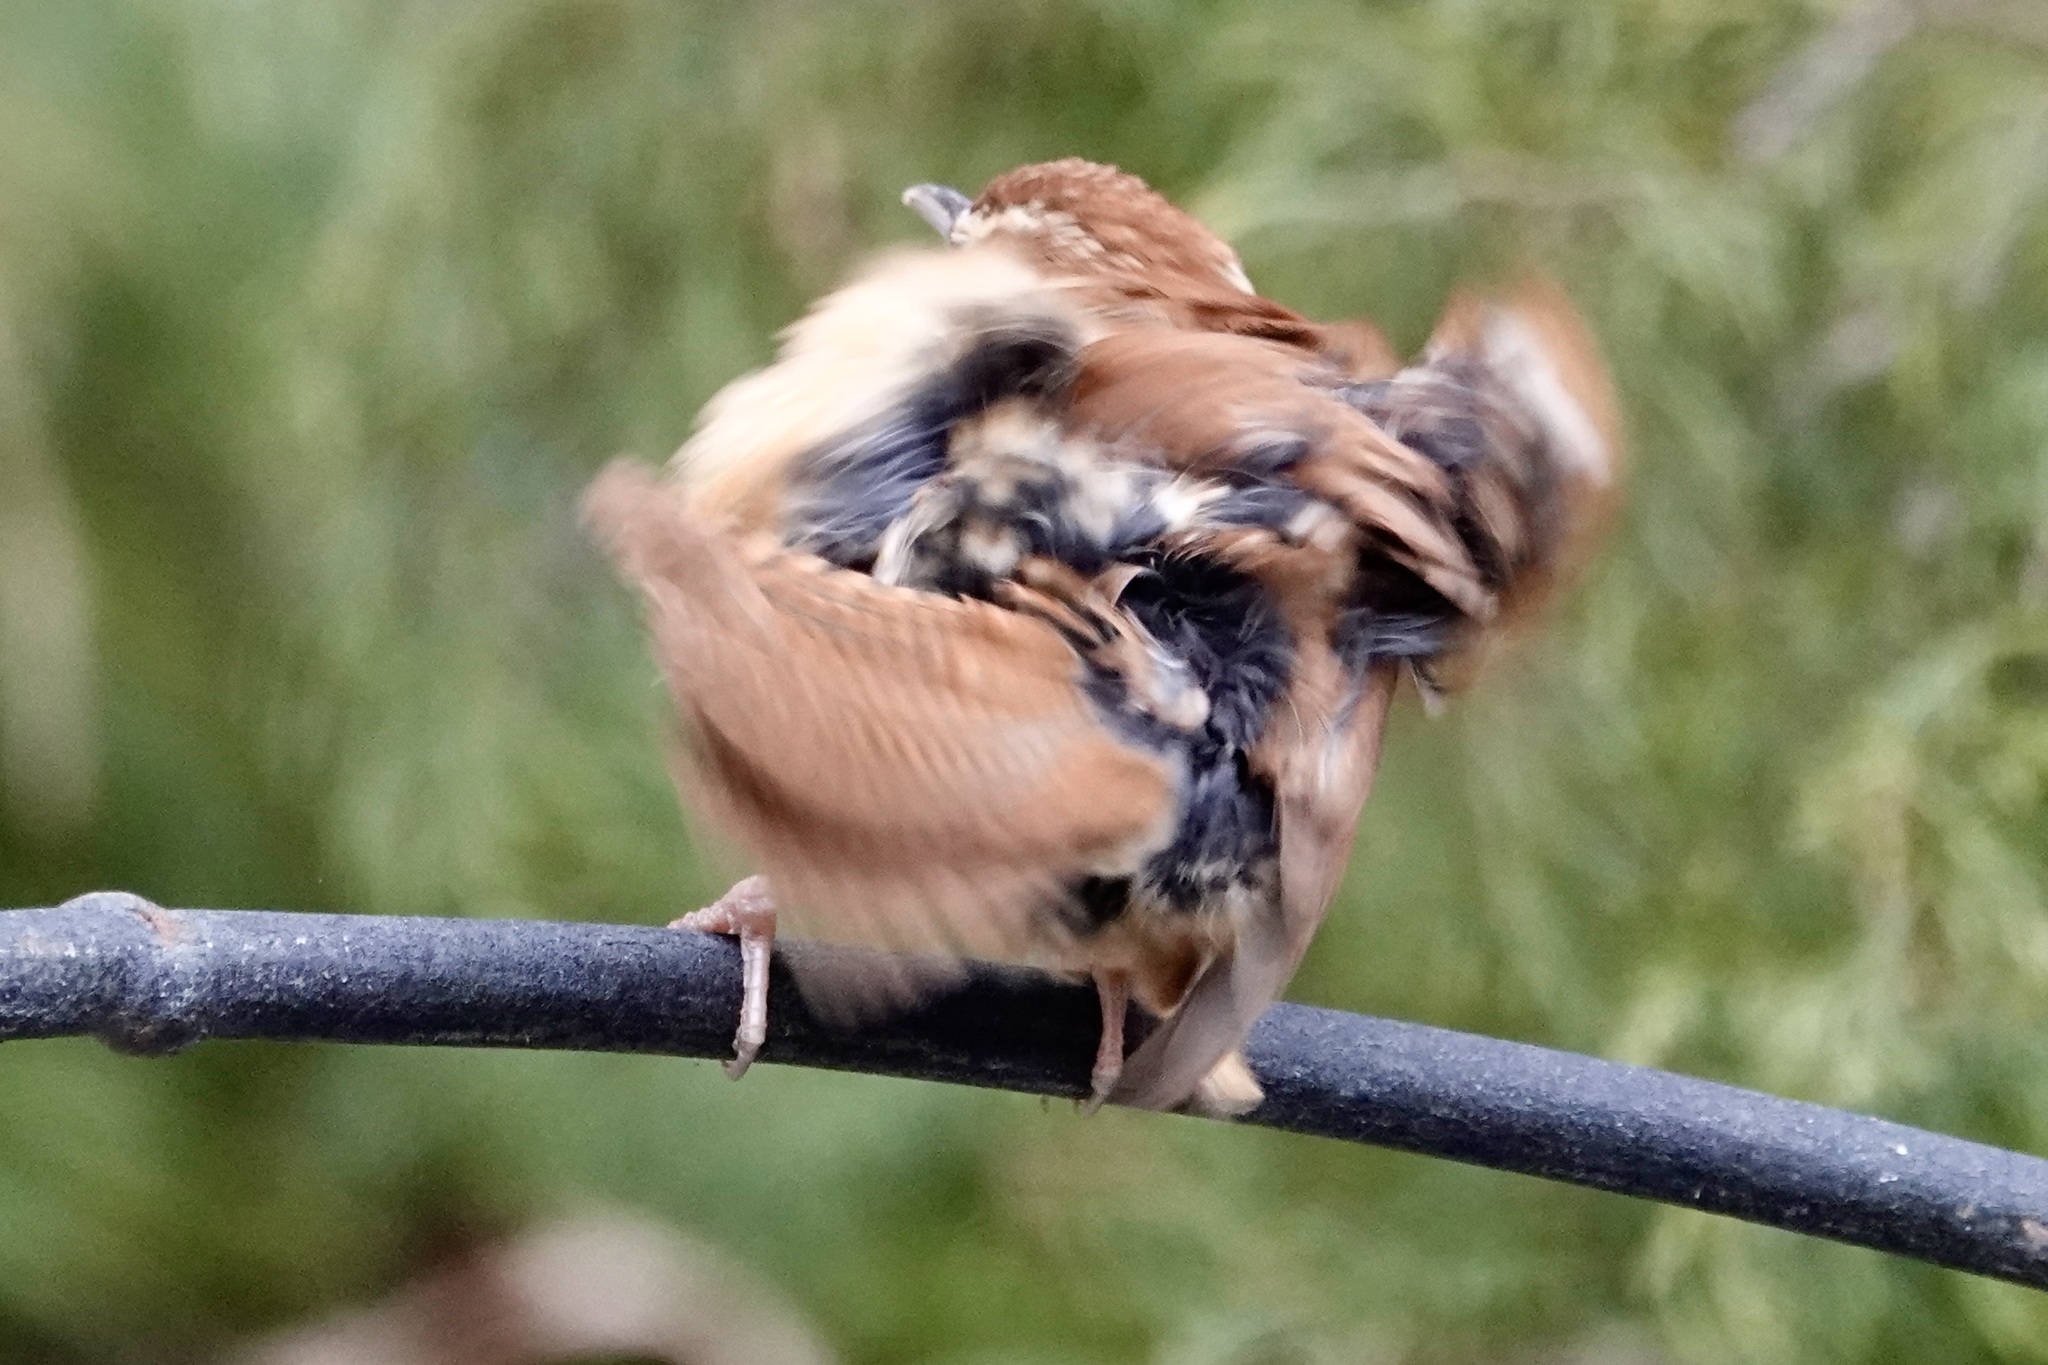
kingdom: Animalia
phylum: Chordata
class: Aves
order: Passeriformes
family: Troglodytidae
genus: Thryothorus
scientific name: Thryothorus ludovicianus
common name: Carolina wren
